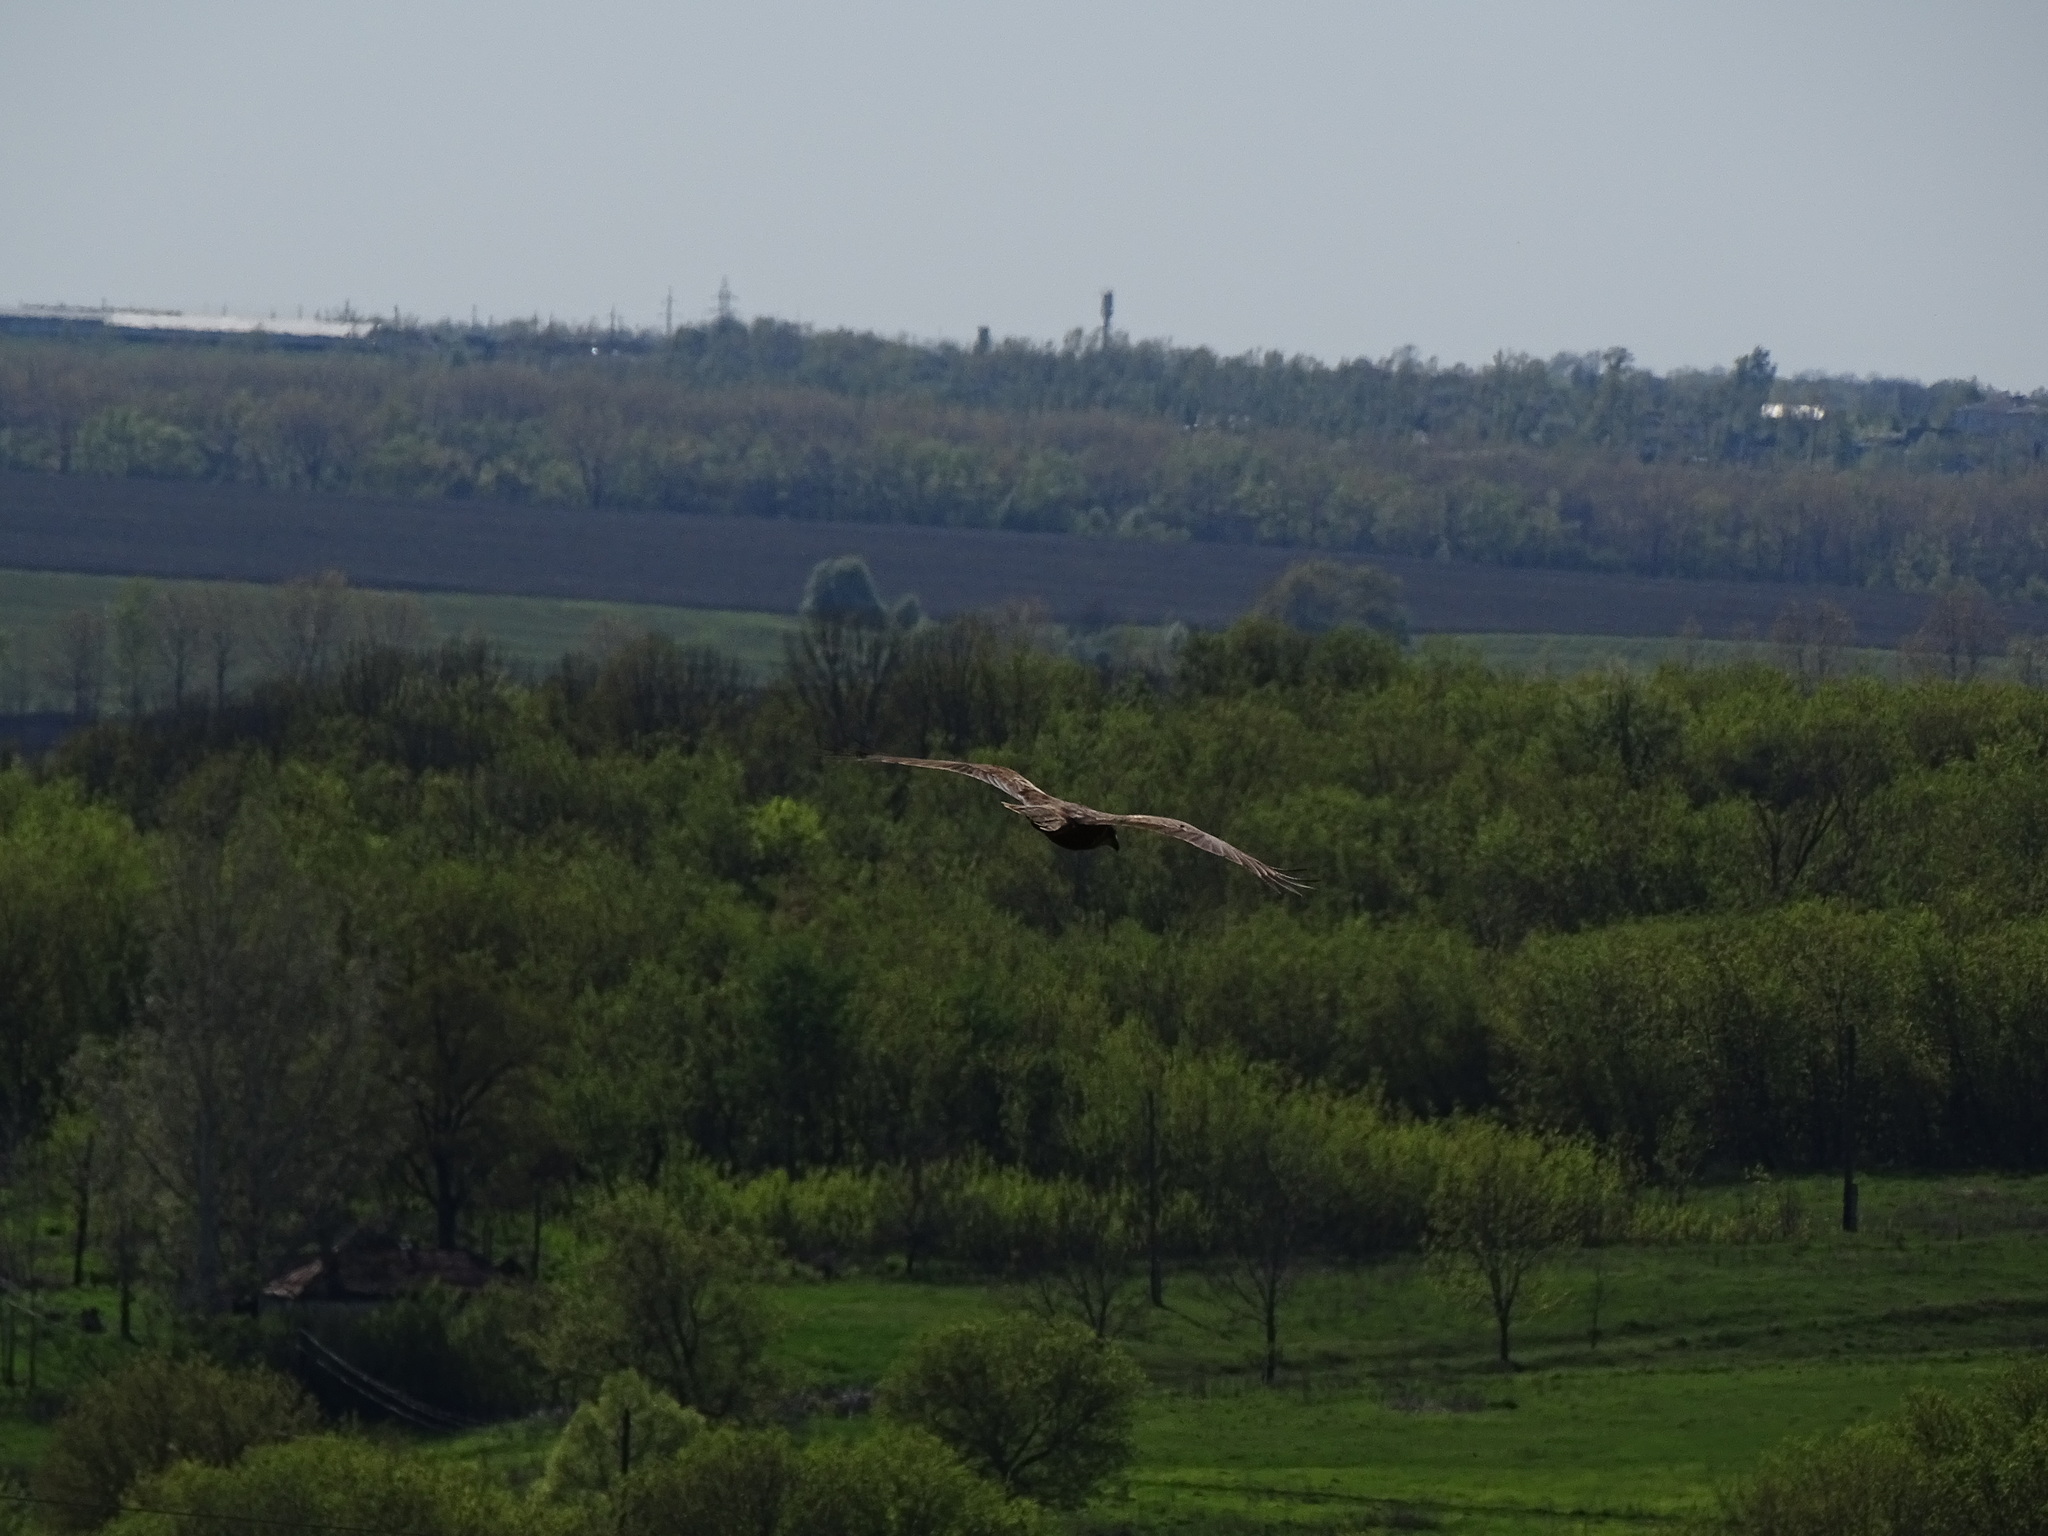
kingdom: Animalia
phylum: Chordata
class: Aves
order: Accipitriformes
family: Accipitridae
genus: Circus
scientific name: Circus aeruginosus
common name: Western marsh harrier
